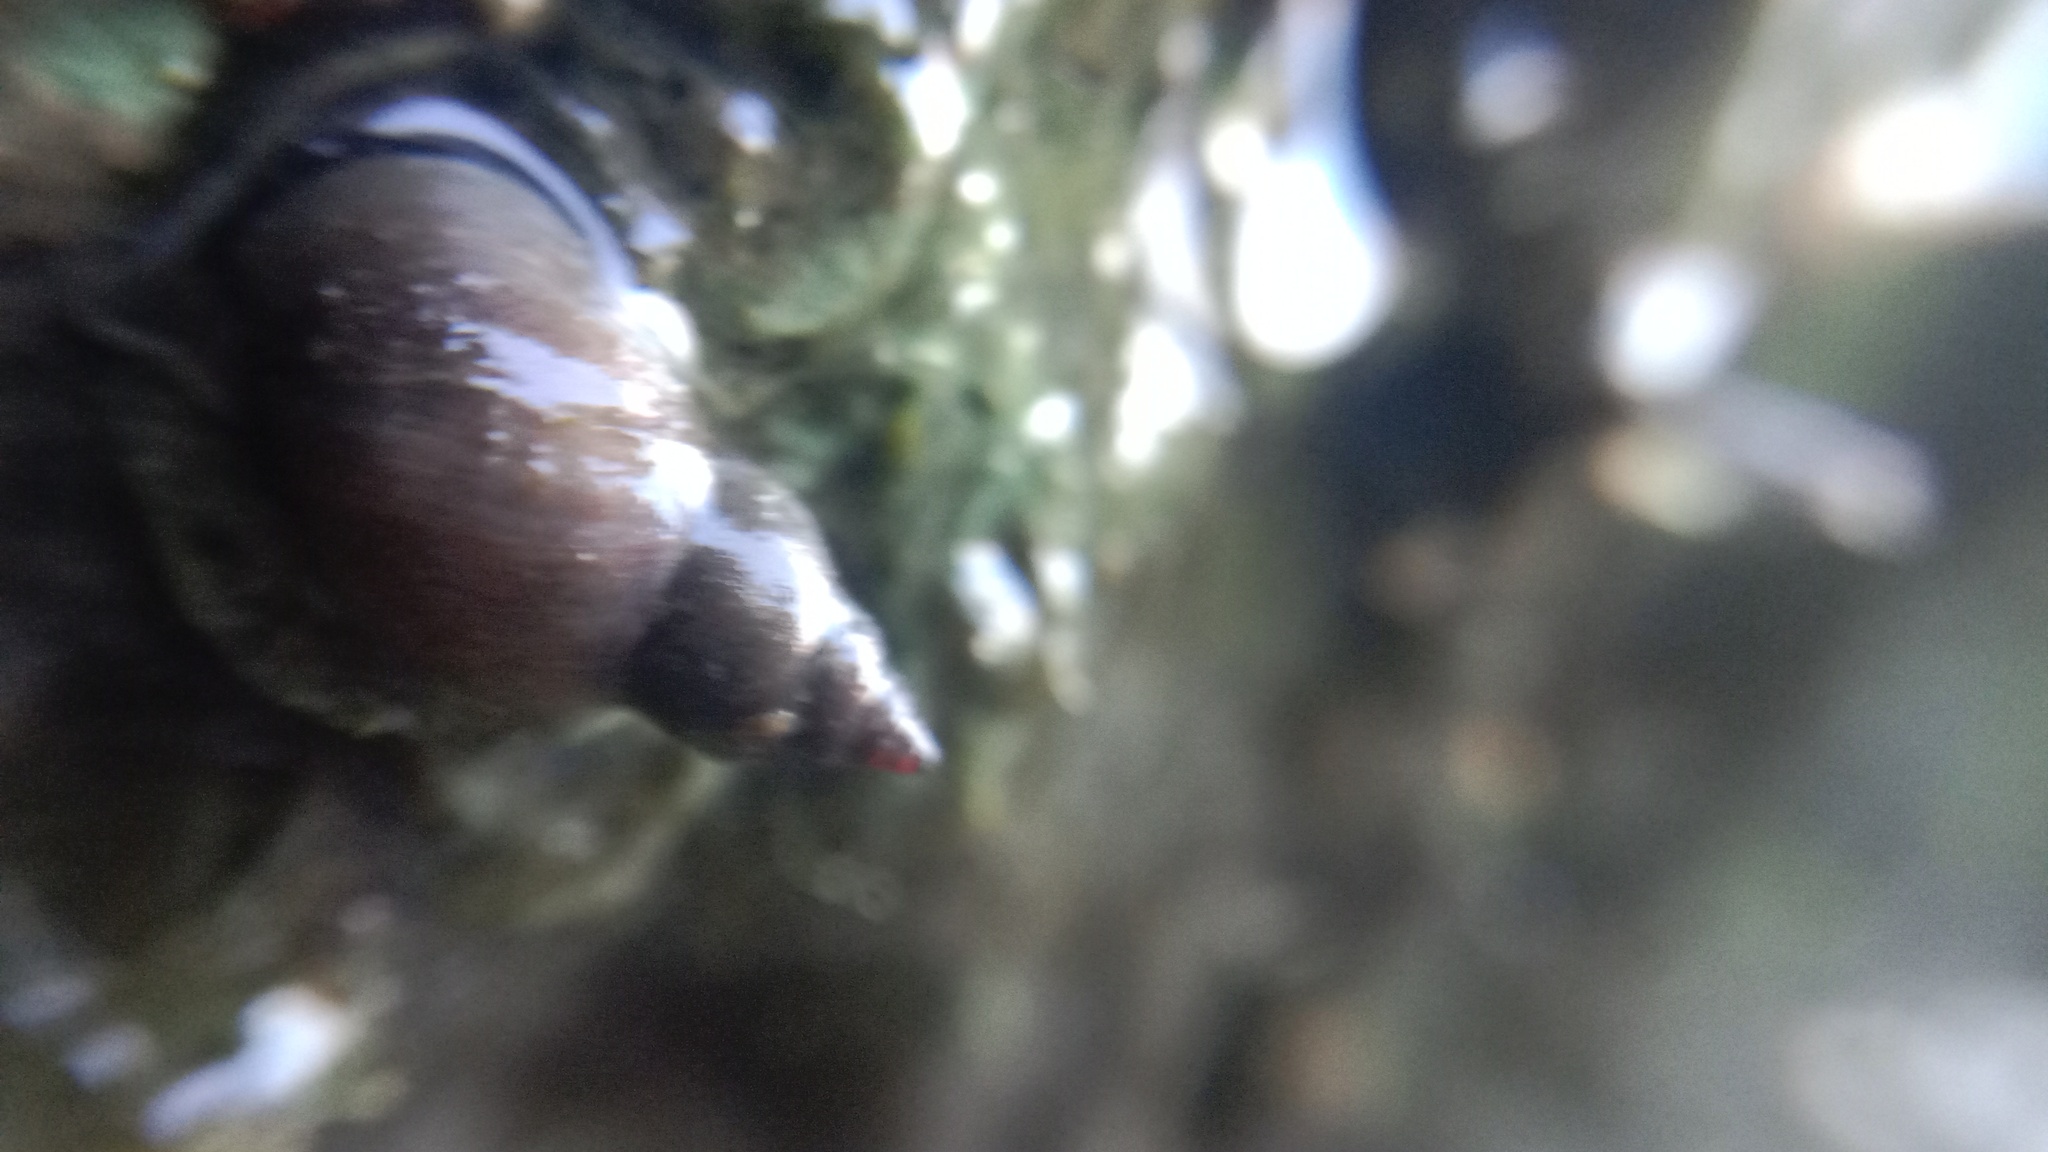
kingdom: Animalia
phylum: Mollusca
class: Gastropoda
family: Lymnaeidae
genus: Stagnicola
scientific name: Stagnicola palustris
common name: Common european pondsnail
